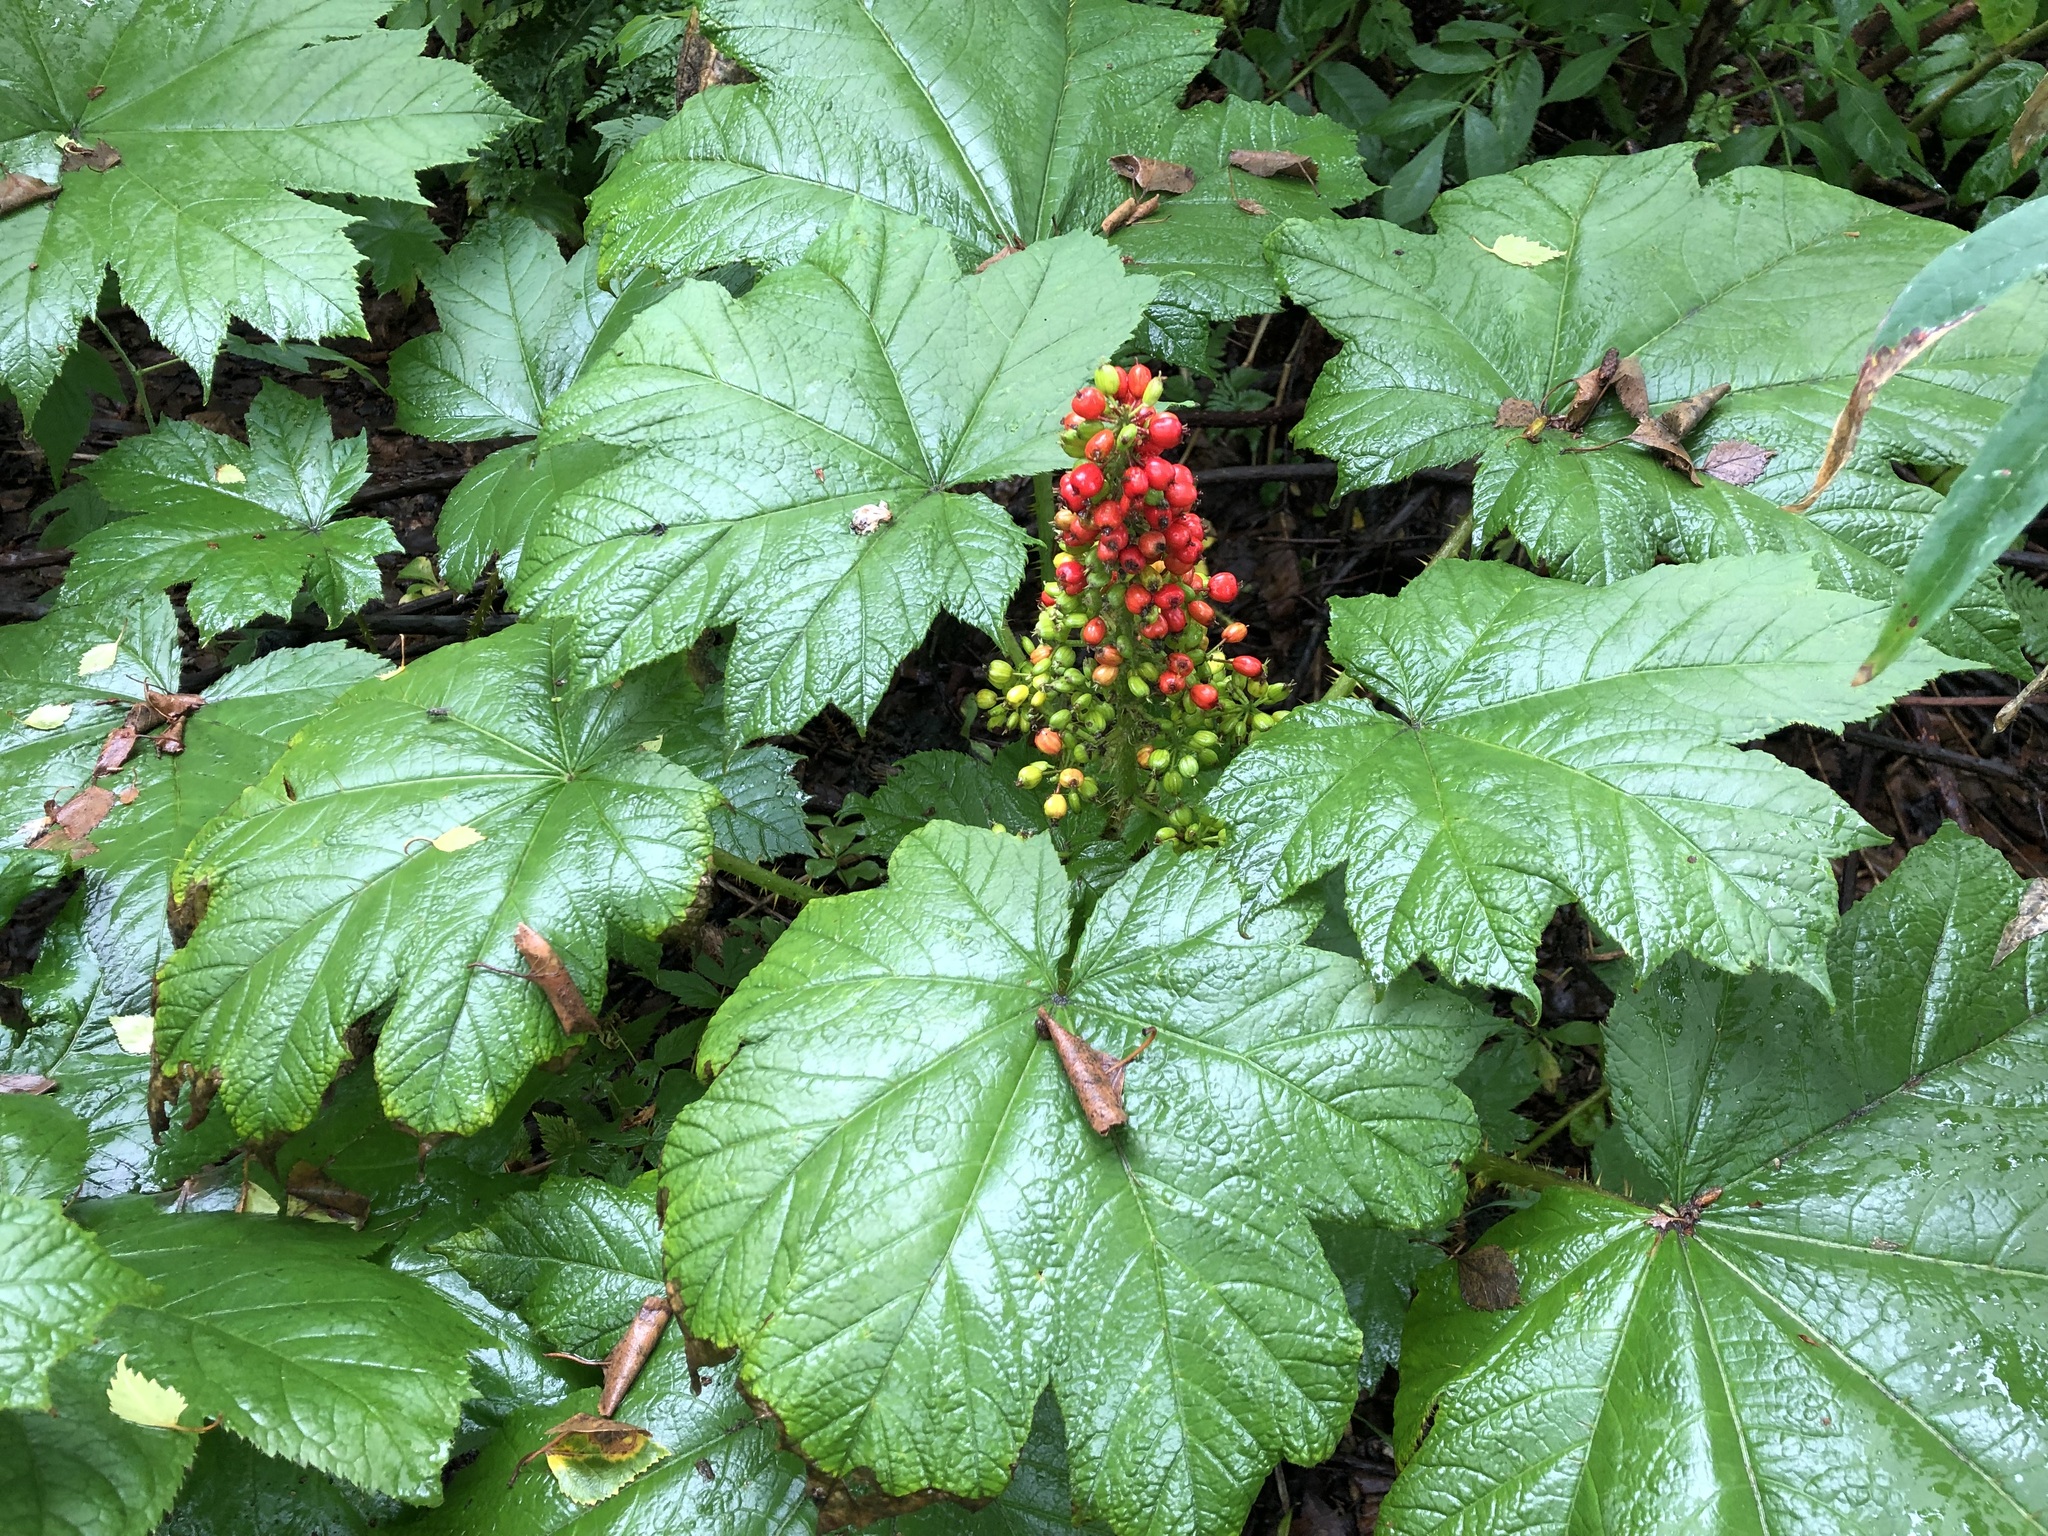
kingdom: Plantae
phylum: Tracheophyta
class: Magnoliopsida
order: Apiales
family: Araliaceae
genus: Oplopanax
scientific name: Oplopanax horridus
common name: Devil's walking-stick
